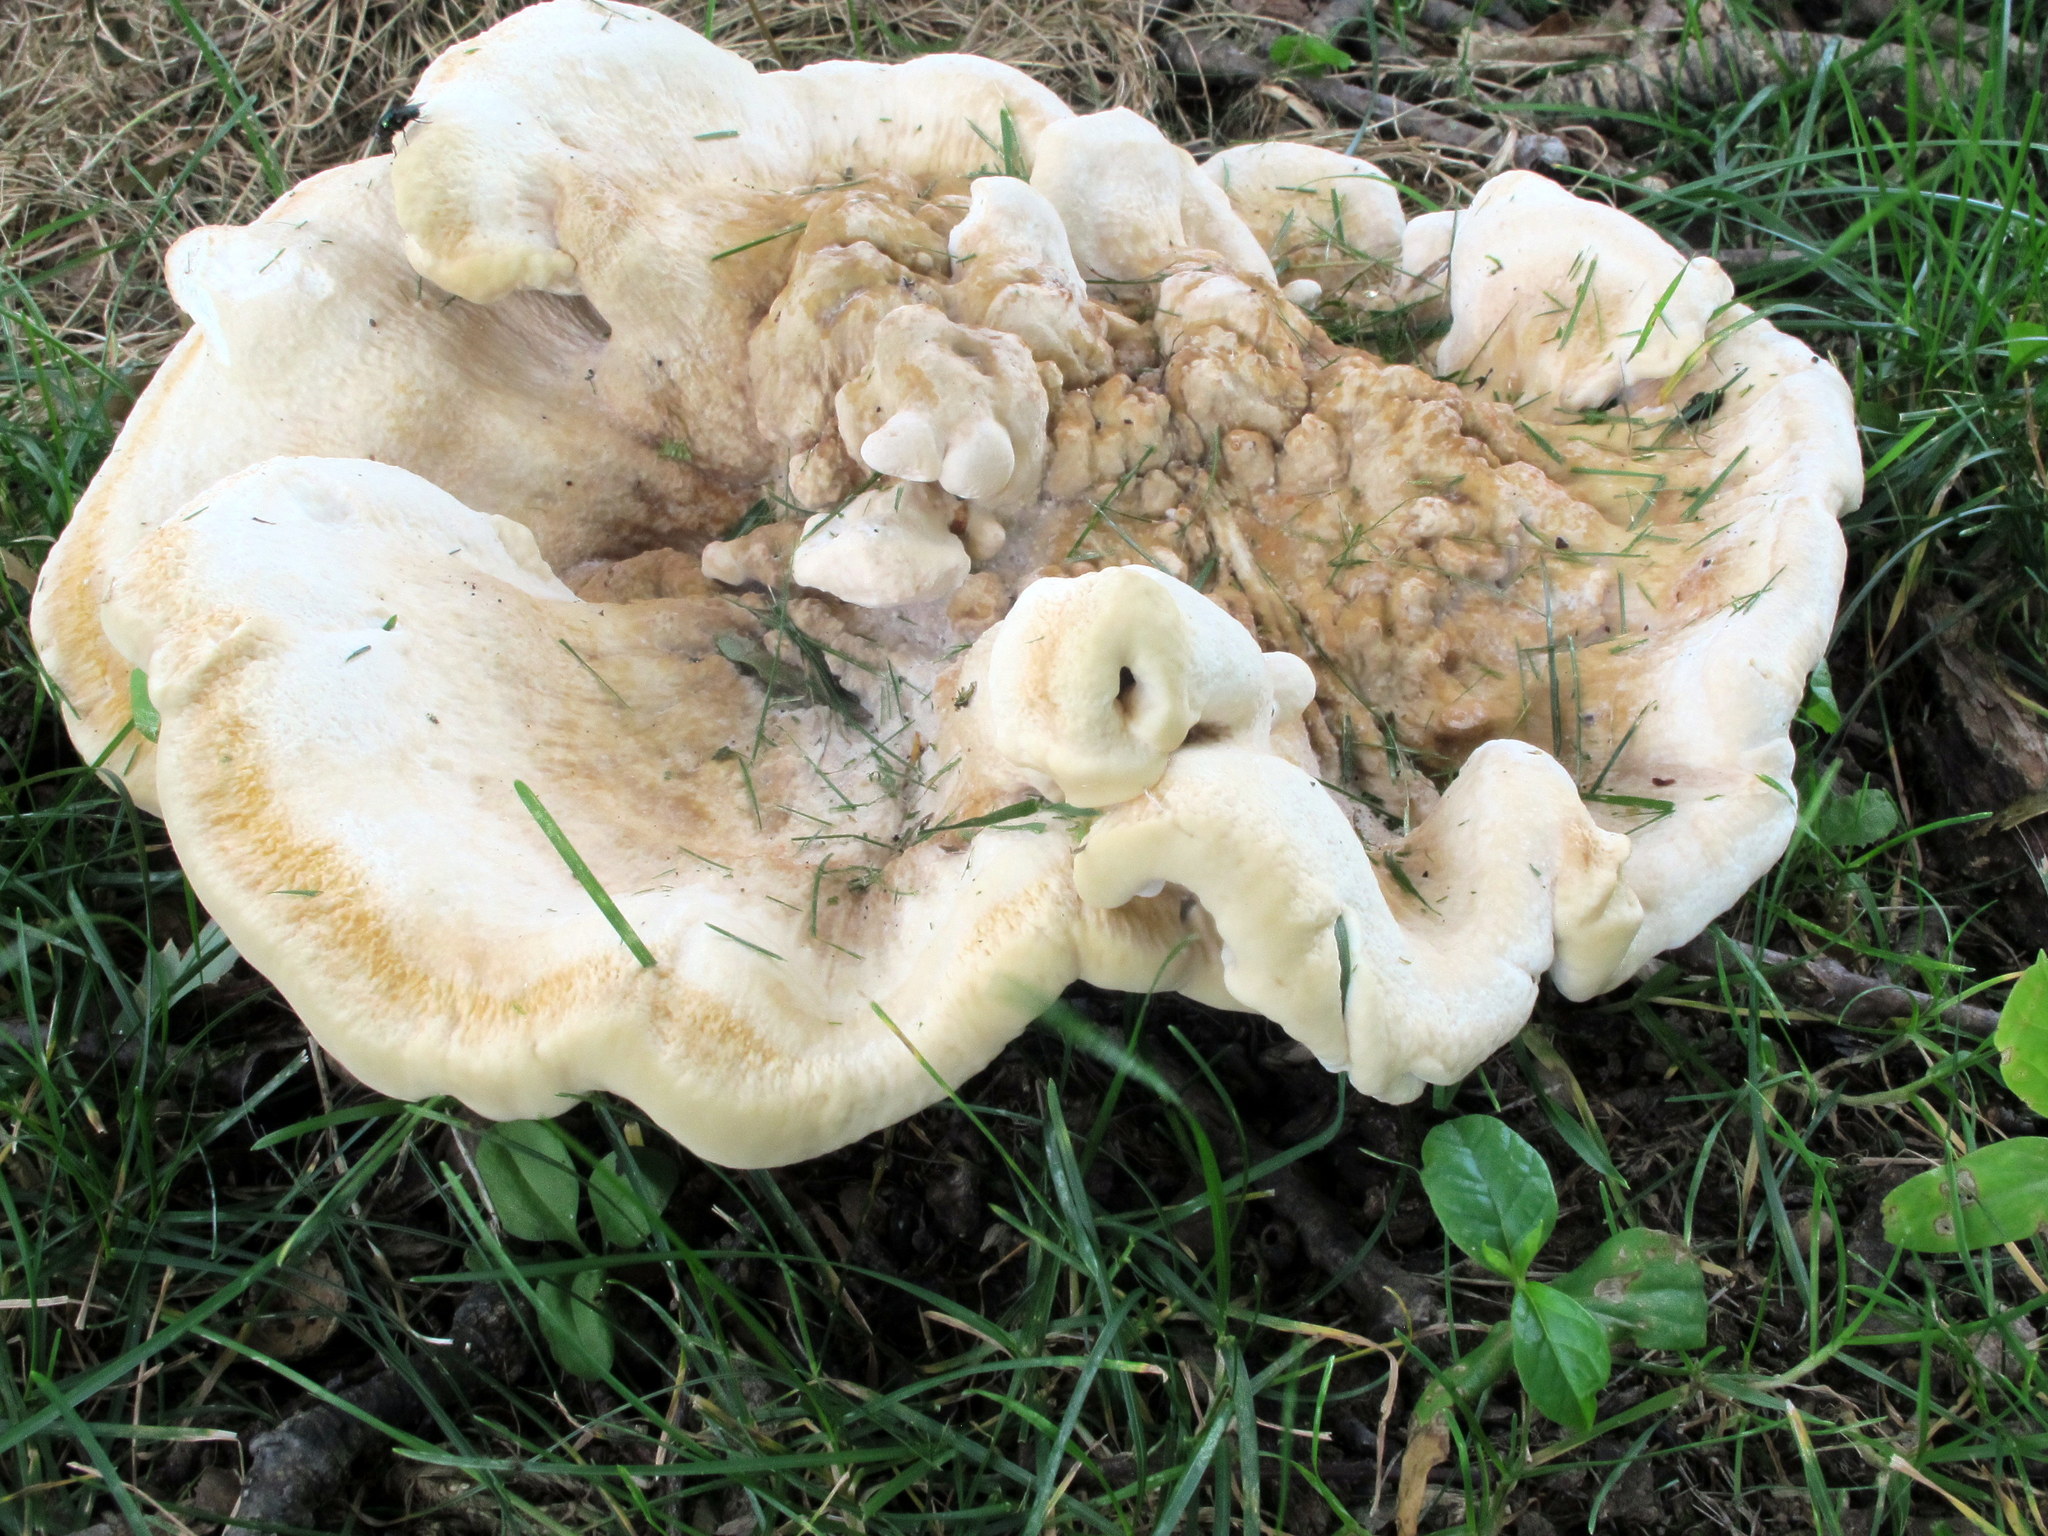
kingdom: Fungi
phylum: Basidiomycota
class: Agaricomycetes
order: Russulales
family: Bondarzewiaceae
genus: Bondarzewia
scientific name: Bondarzewia berkeleyi
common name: Berkeley's polypore
